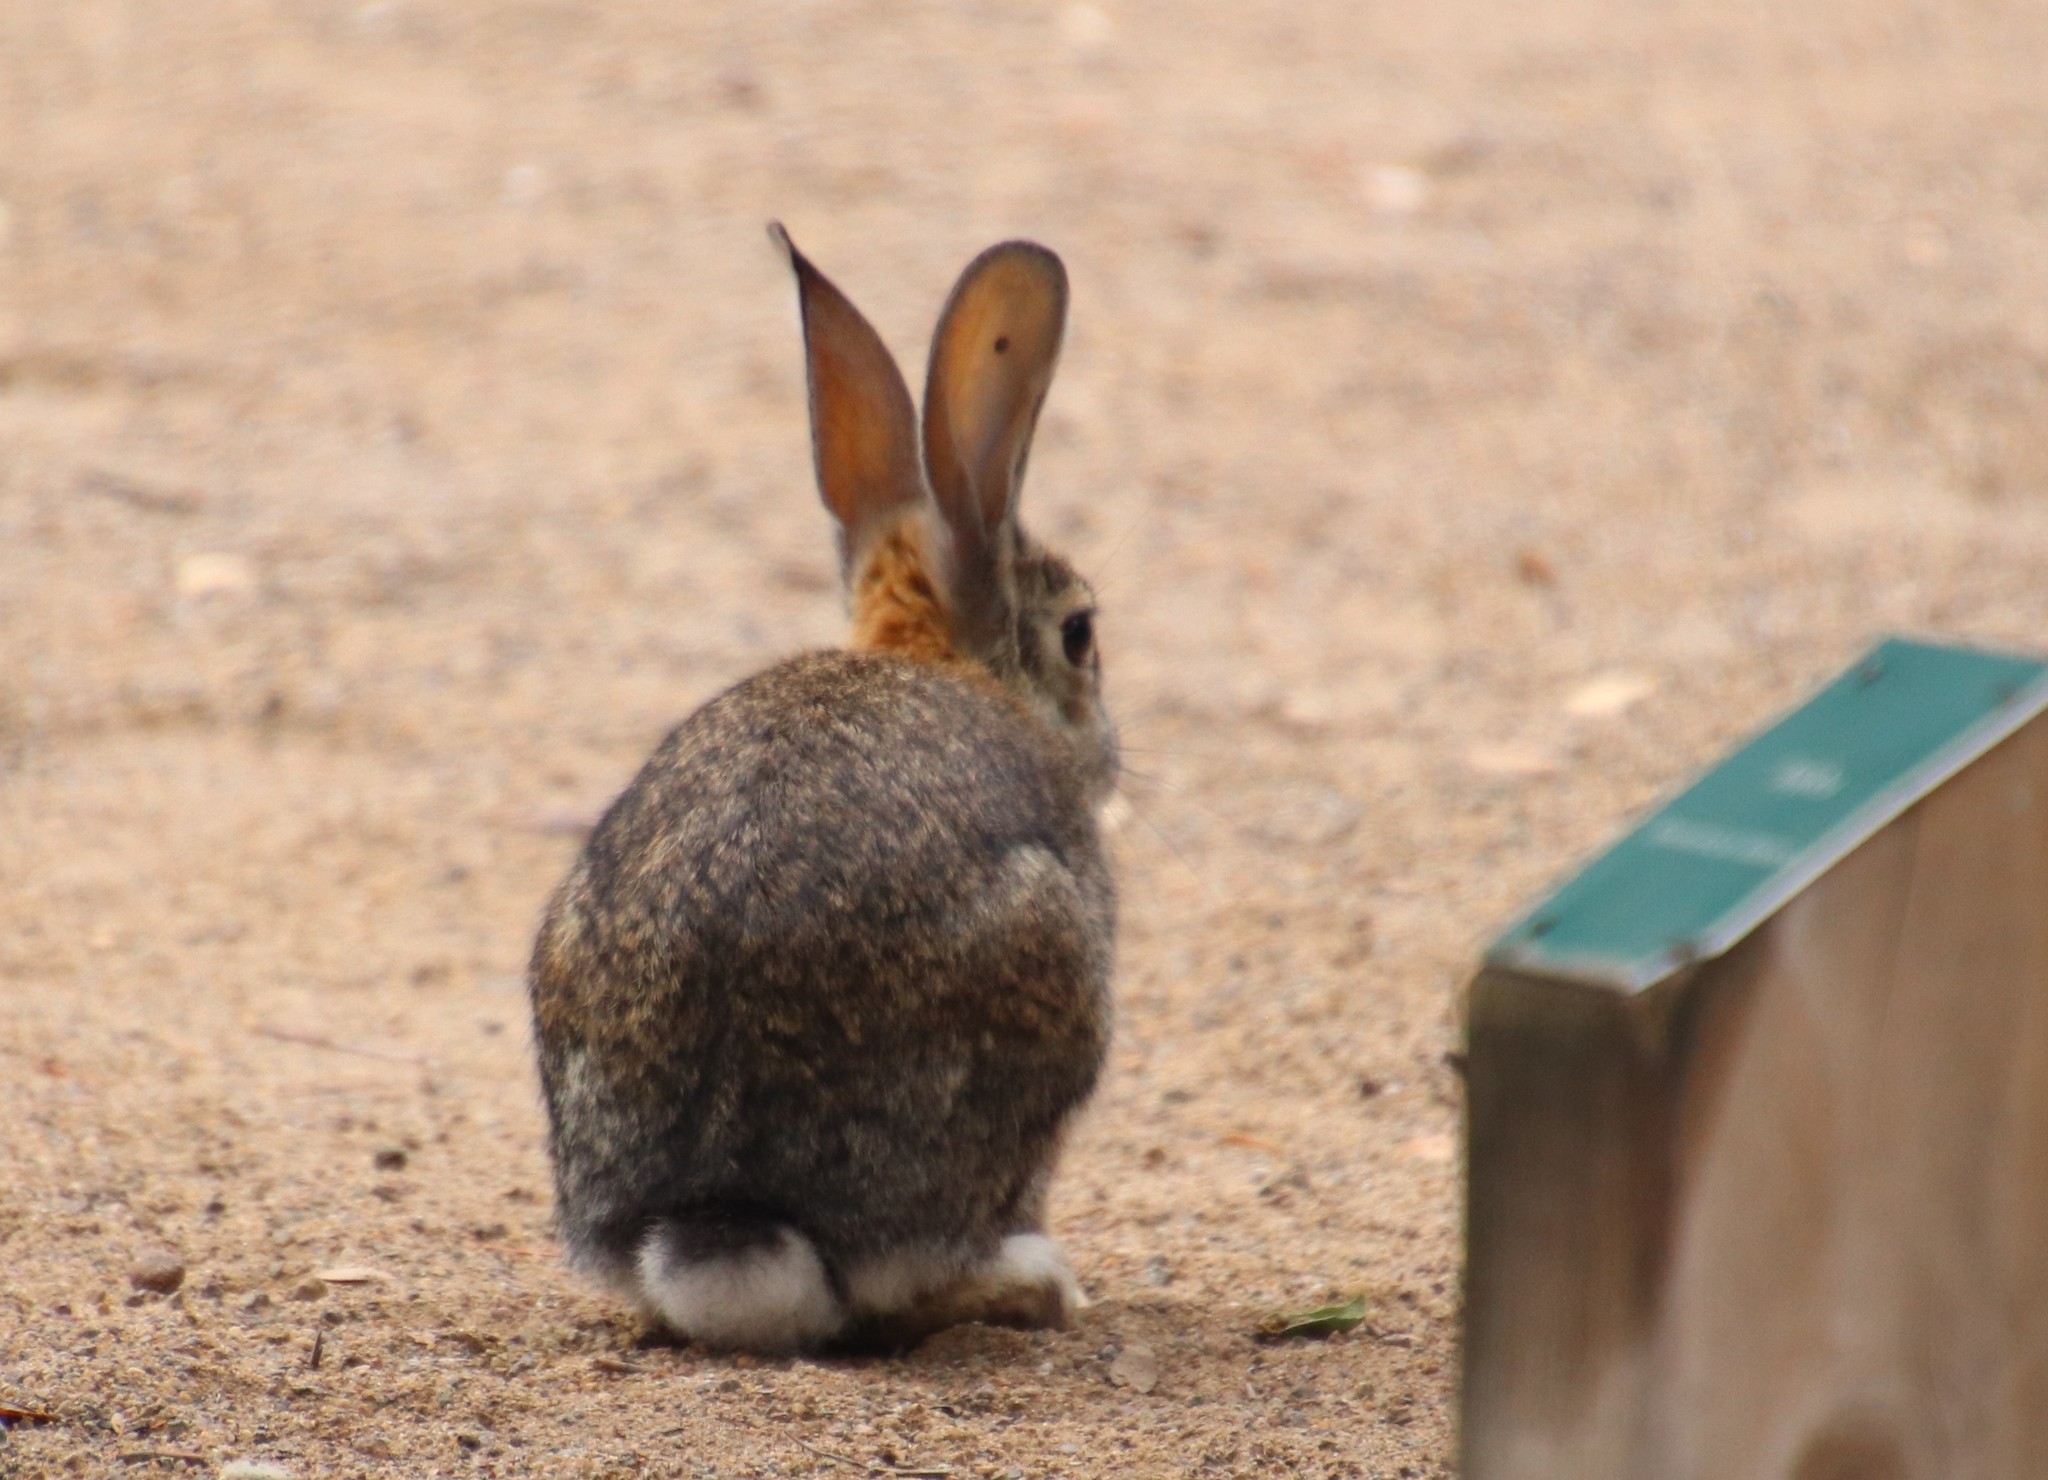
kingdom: Animalia
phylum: Chordata
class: Mammalia
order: Lagomorpha
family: Leporidae
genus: Sylvilagus
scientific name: Sylvilagus audubonii
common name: Desert cottontail
